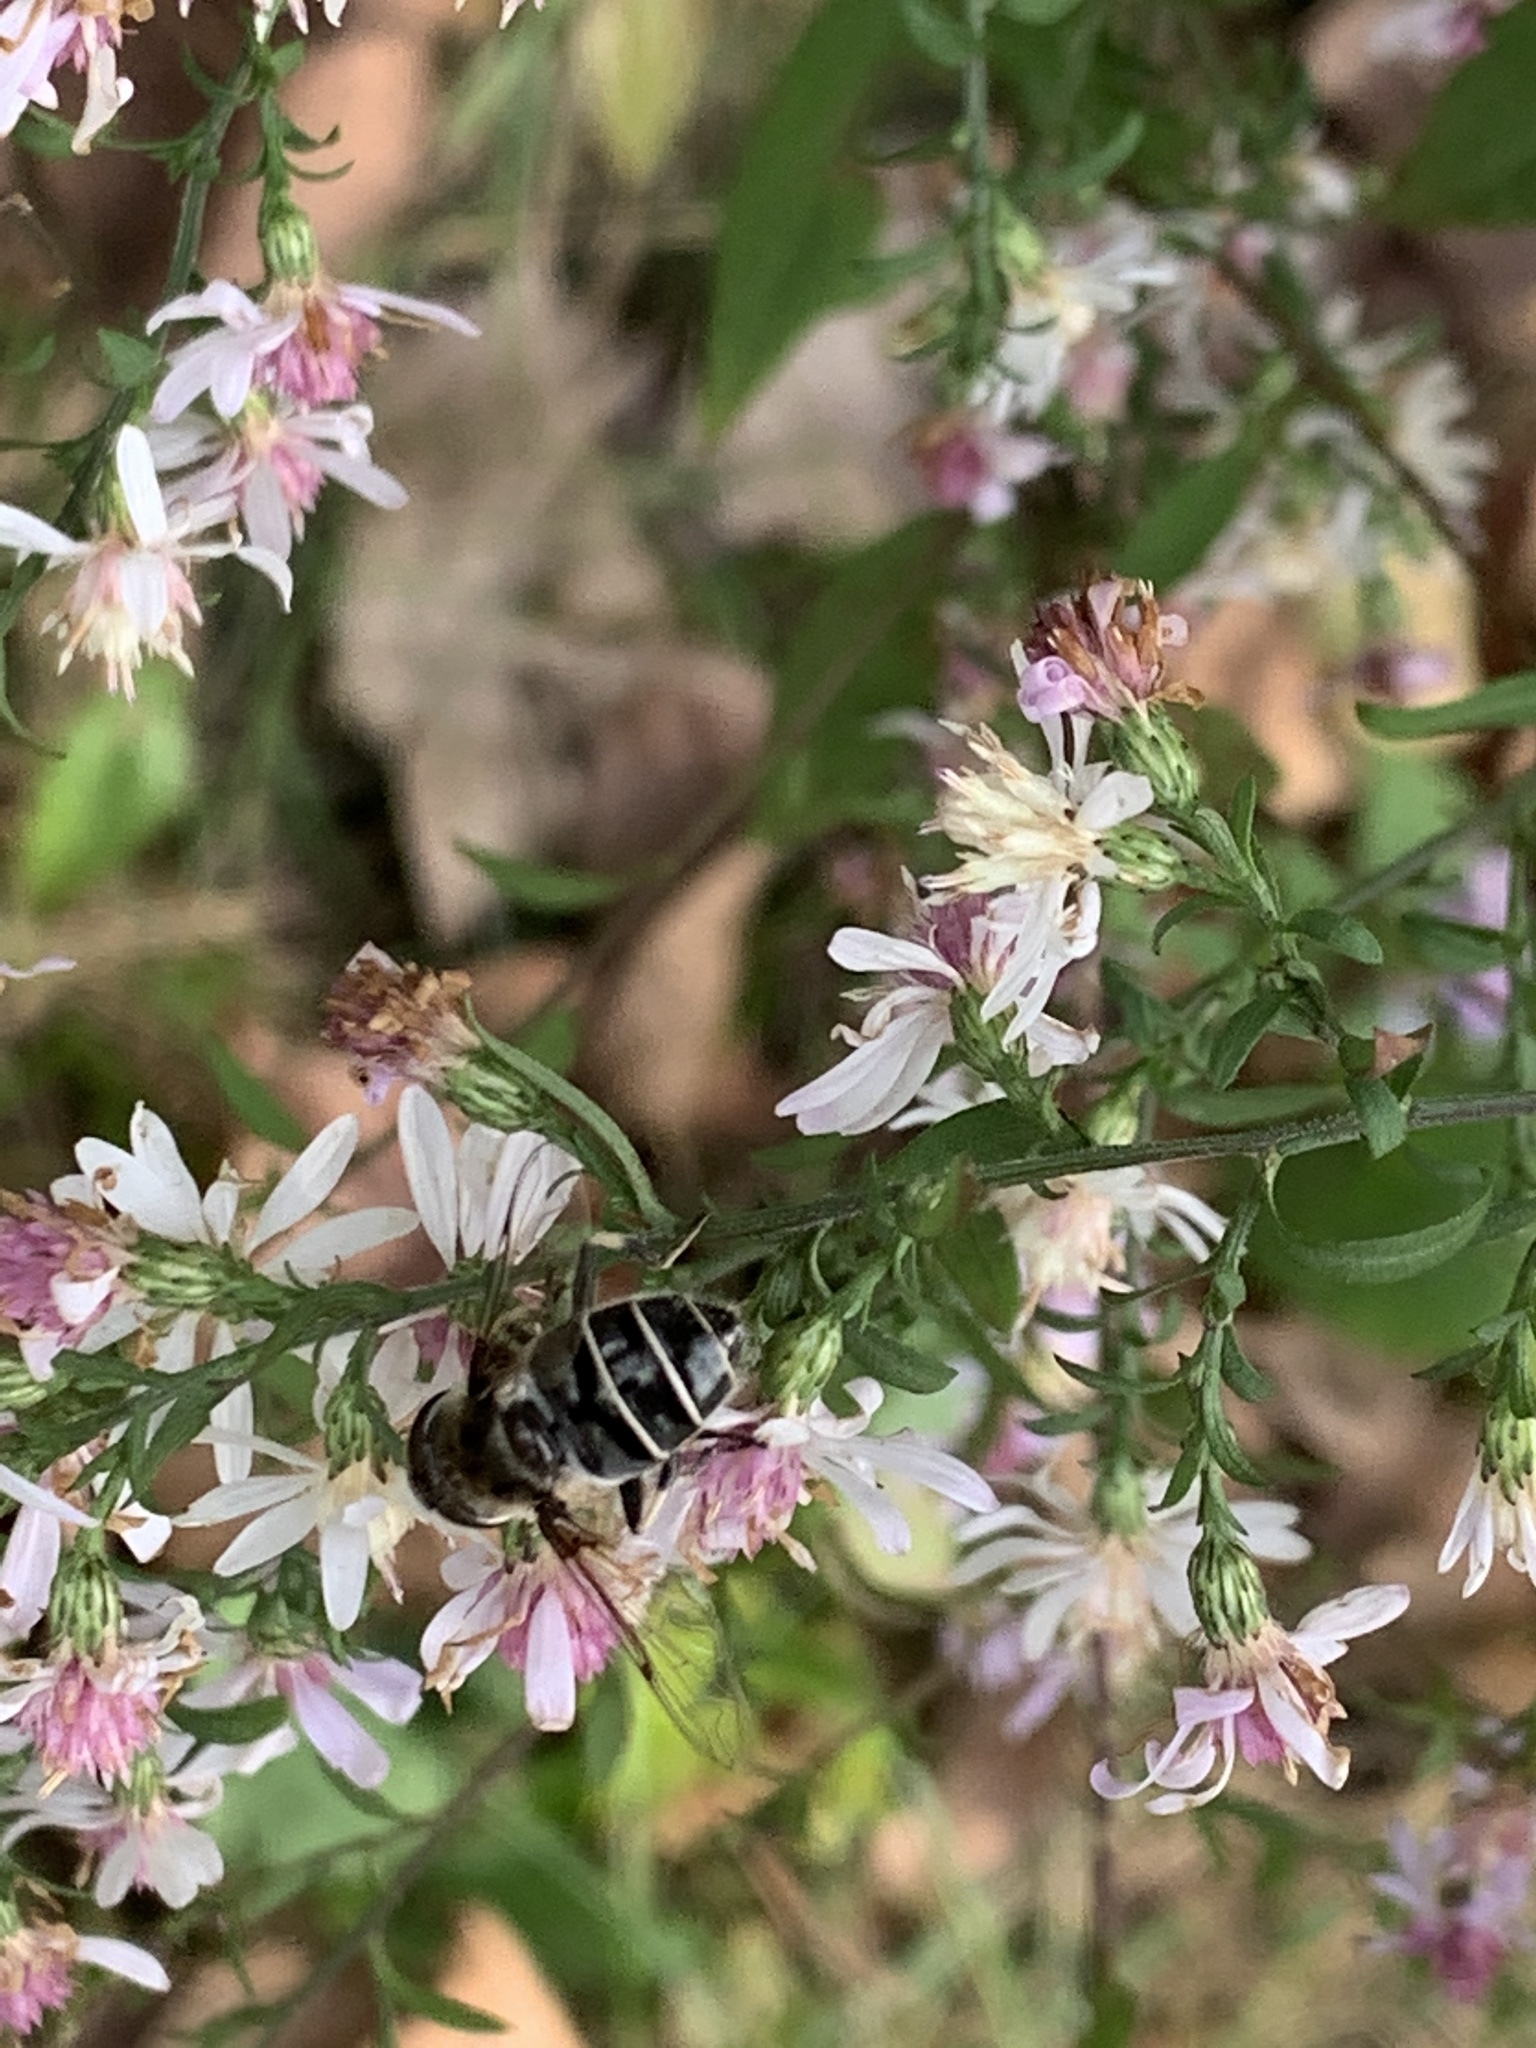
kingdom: Animalia
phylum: Arthropoda
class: Insecta
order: Diptera
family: Syrphidae
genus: Eristalis
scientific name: Eristalis dimidiata
